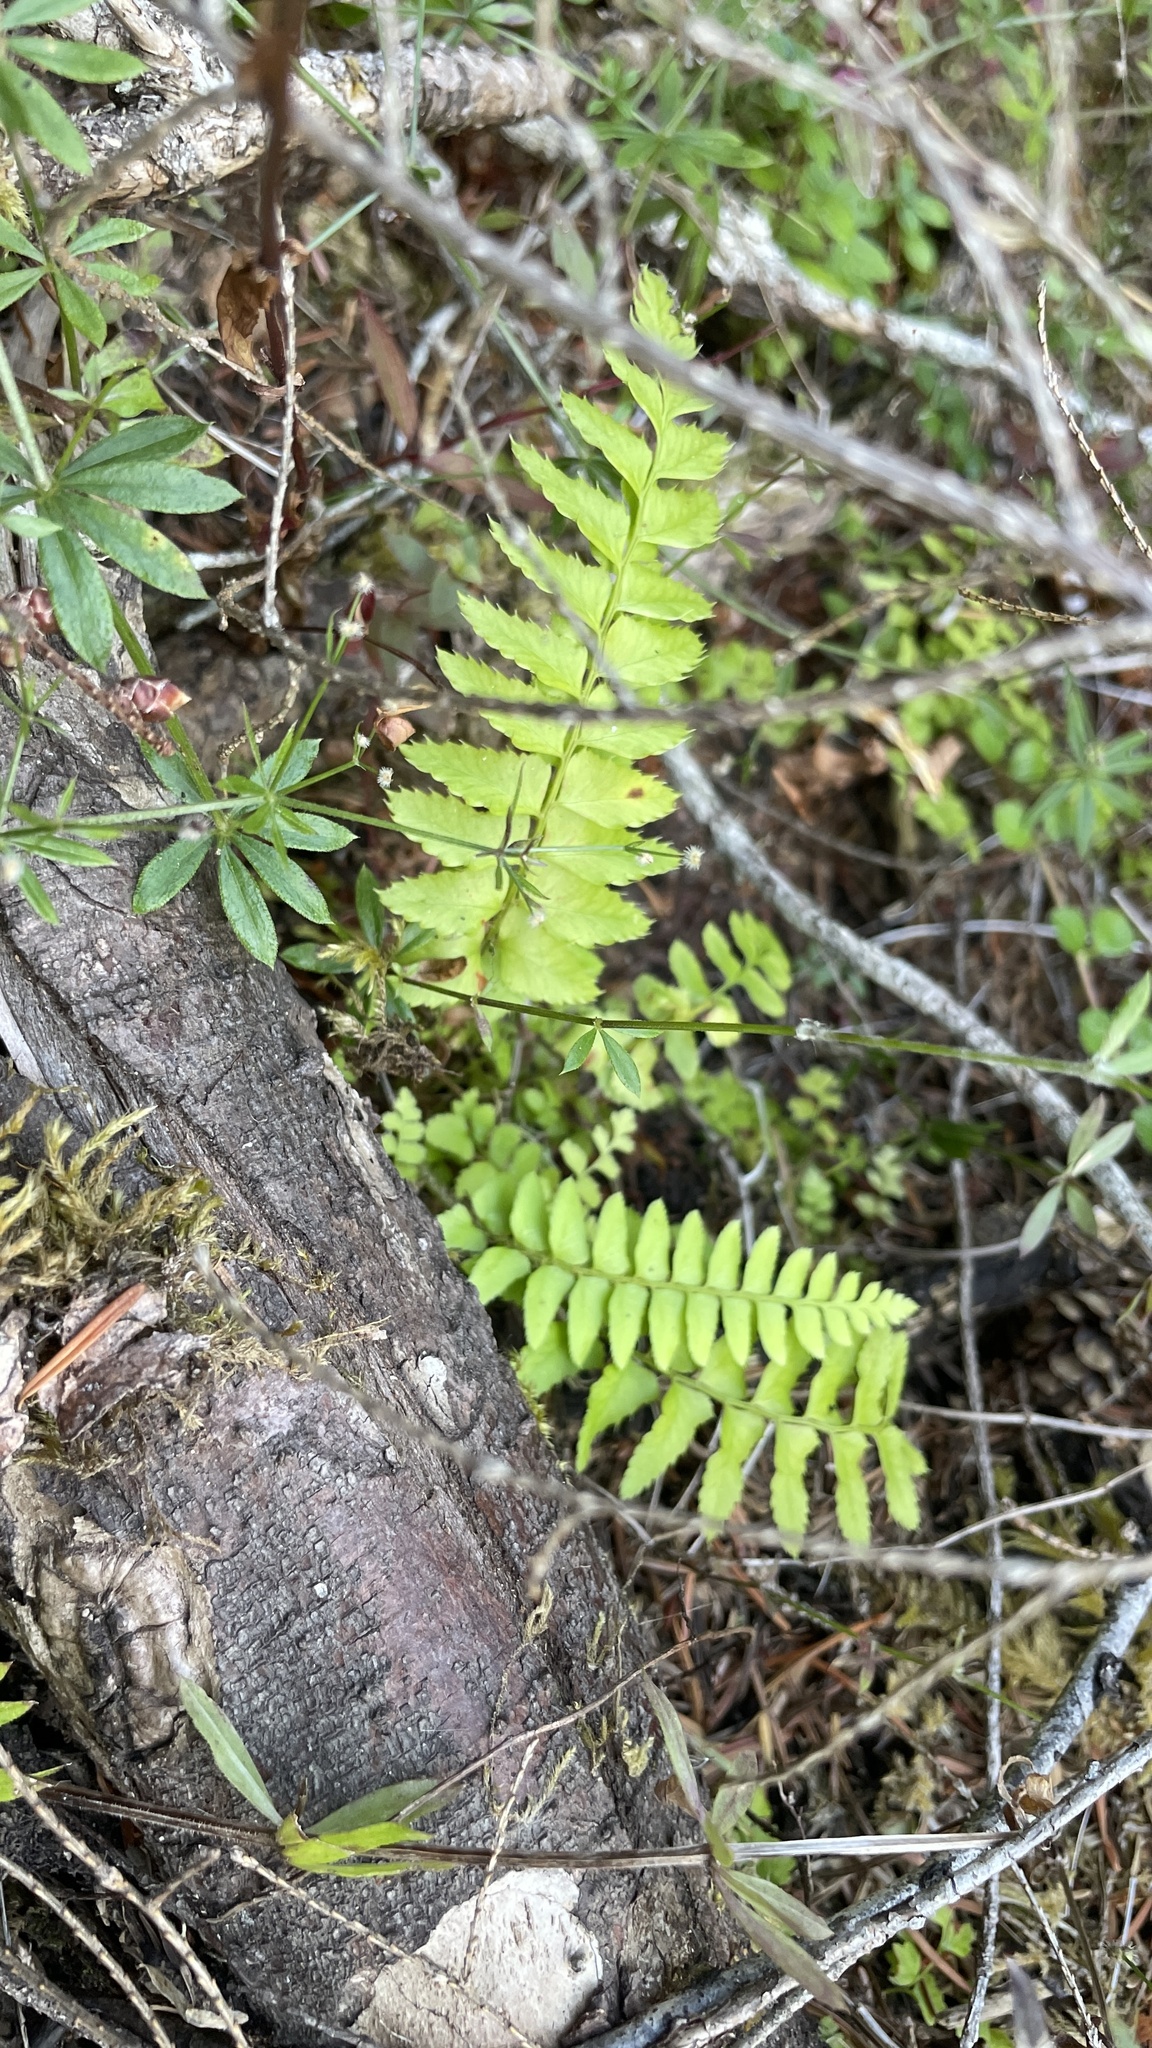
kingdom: Plantae
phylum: Tracheophyta
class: Polypodiopsida
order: Polypodiales
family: Dryopteridaceae
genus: Polystichum
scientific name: Polystichum munitum
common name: Western sword-fern
